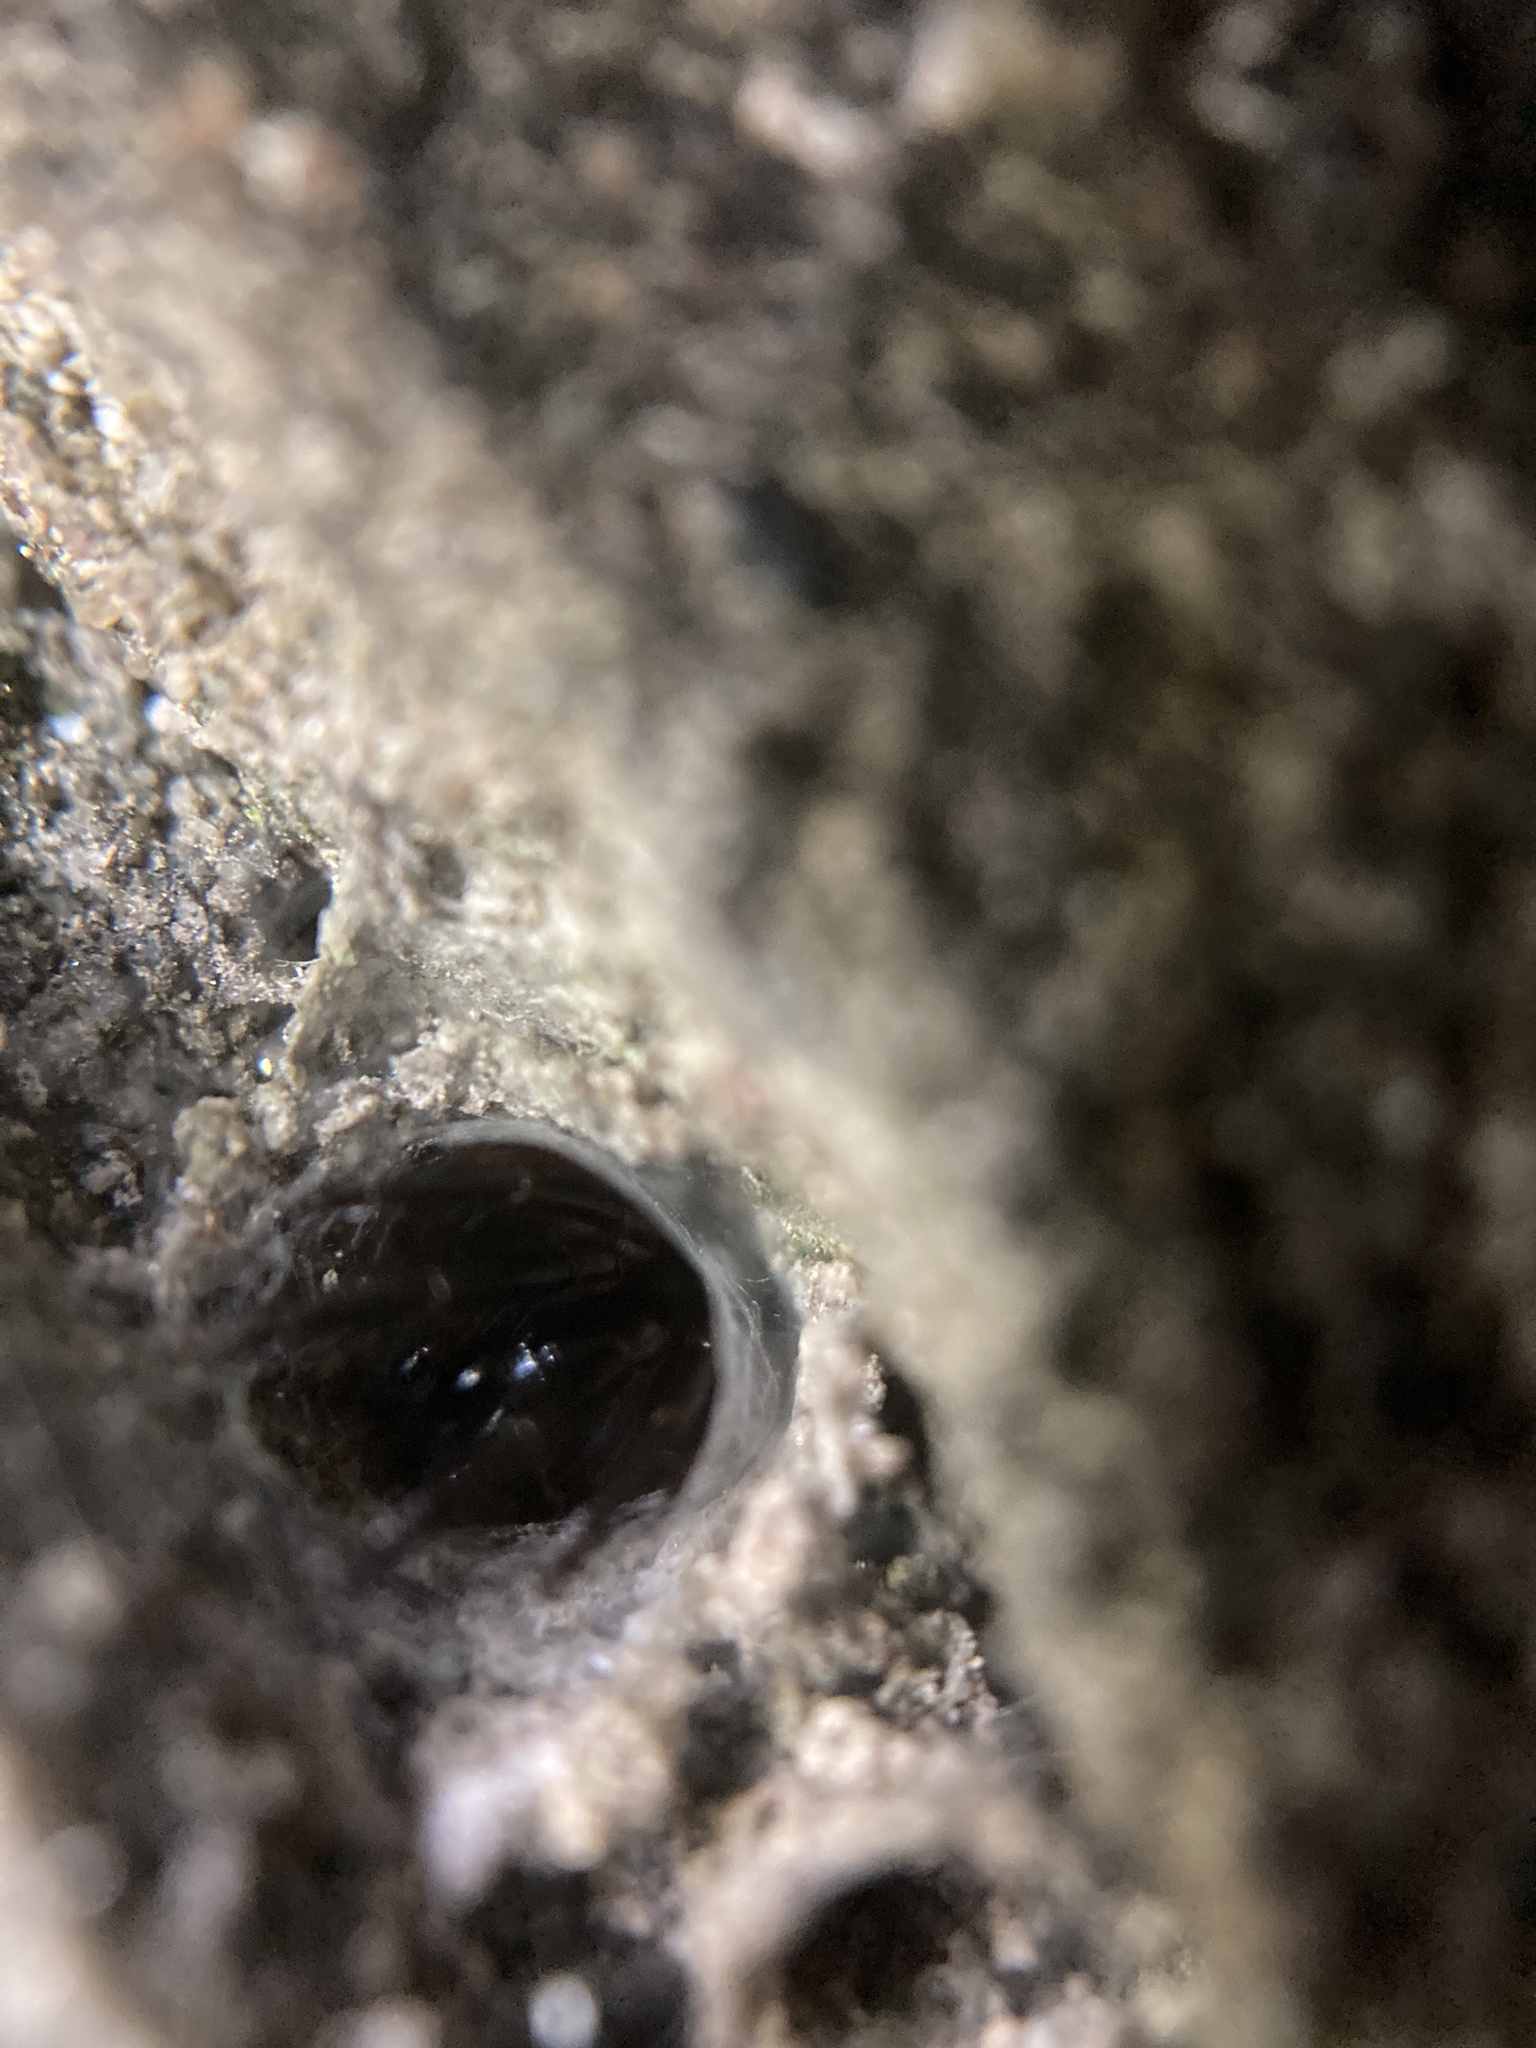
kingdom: Animalia
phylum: Arthropoda
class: Arachnida
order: Araneae
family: Segestriidae
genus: Ariadna
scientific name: Ariadna bicolor
